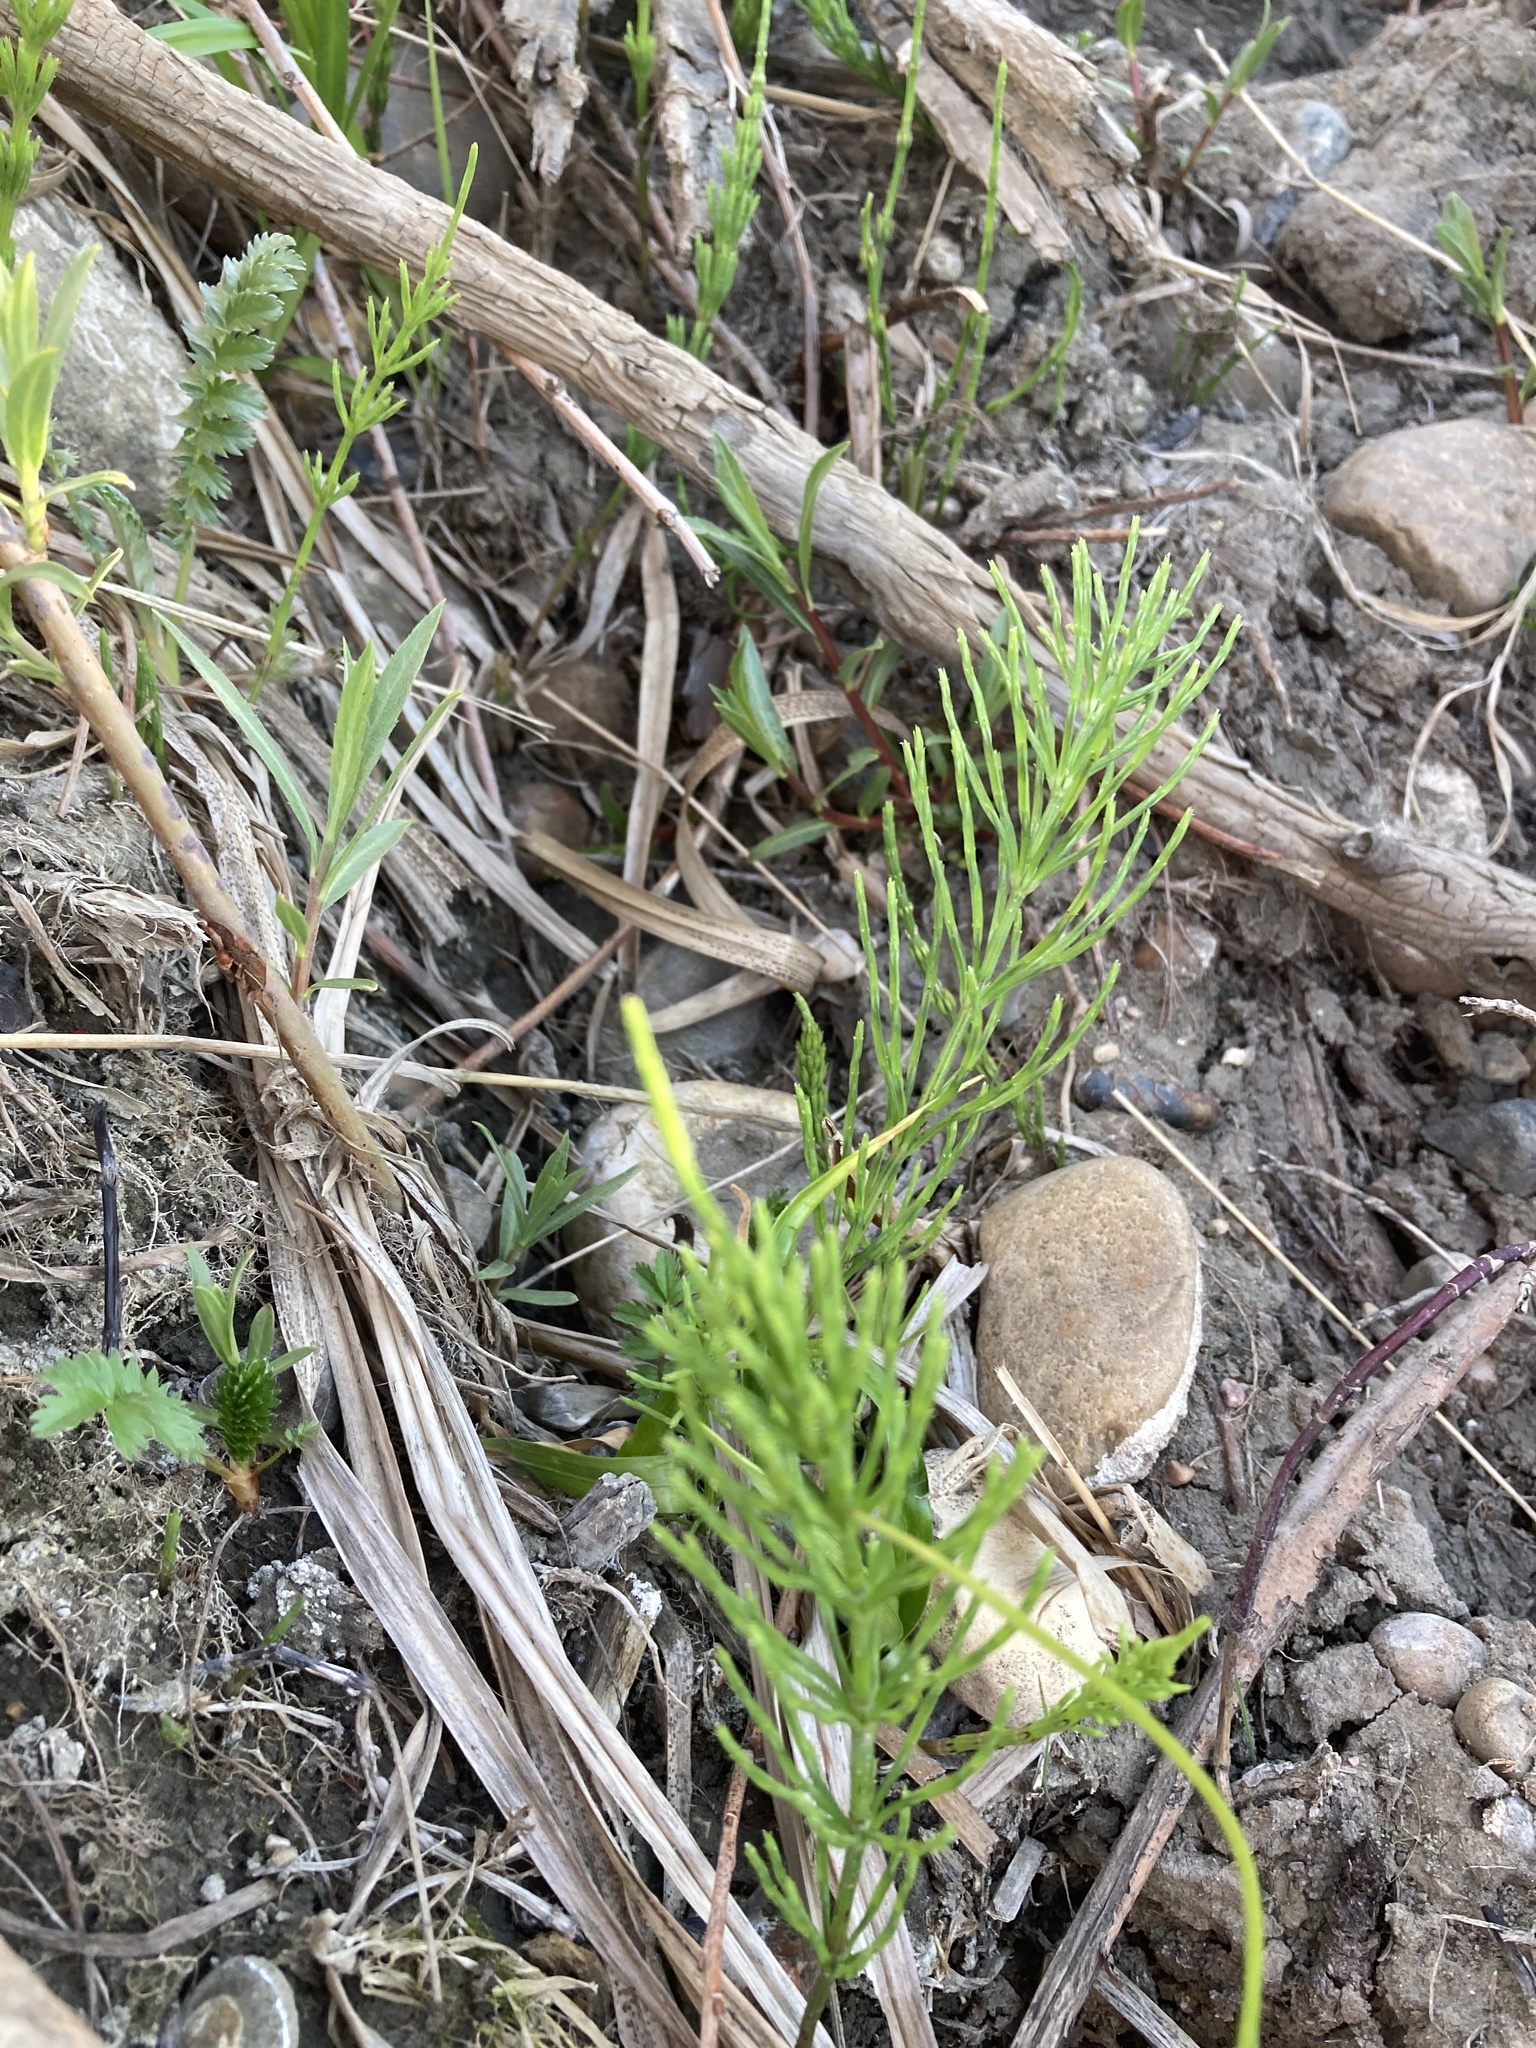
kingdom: Plantae
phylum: Tracheophyta
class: Polypodiopsida
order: Equisetales
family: Equisetaceae
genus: Equisetum
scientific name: Equisetum arvense
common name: Field horsetail
